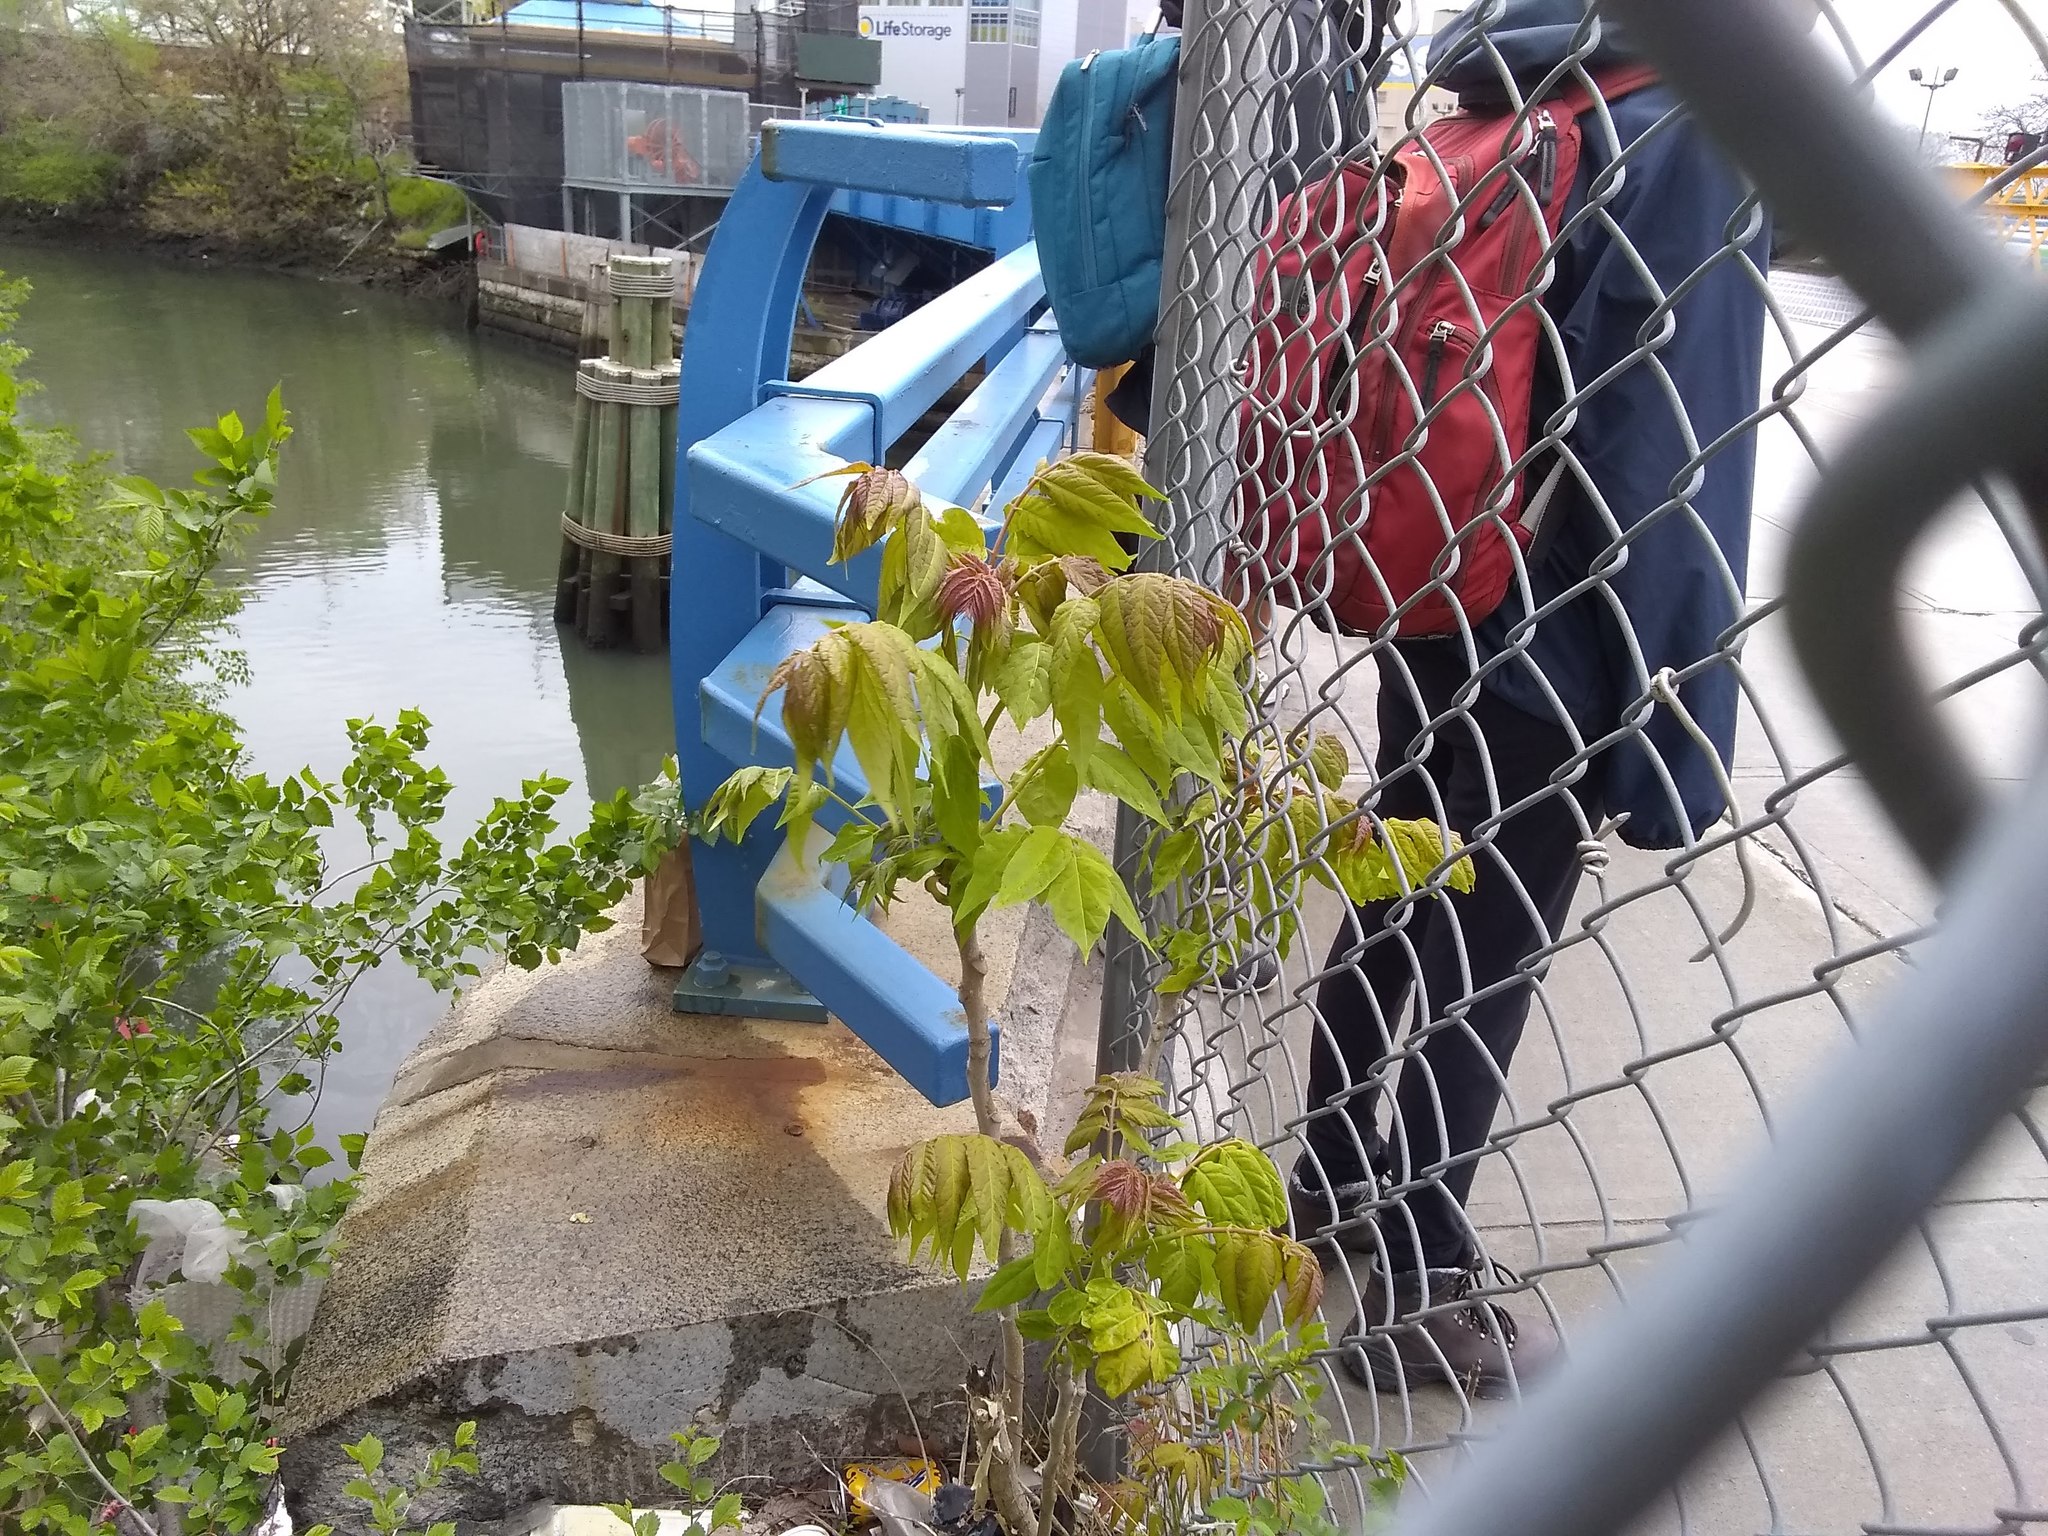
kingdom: Plantae
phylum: Tracheophyta
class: Magnoliopsida
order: Sapindales
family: Simaroubaceae
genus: Ailanthus
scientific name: Ailanthus altissima
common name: Tree-of-heaven
